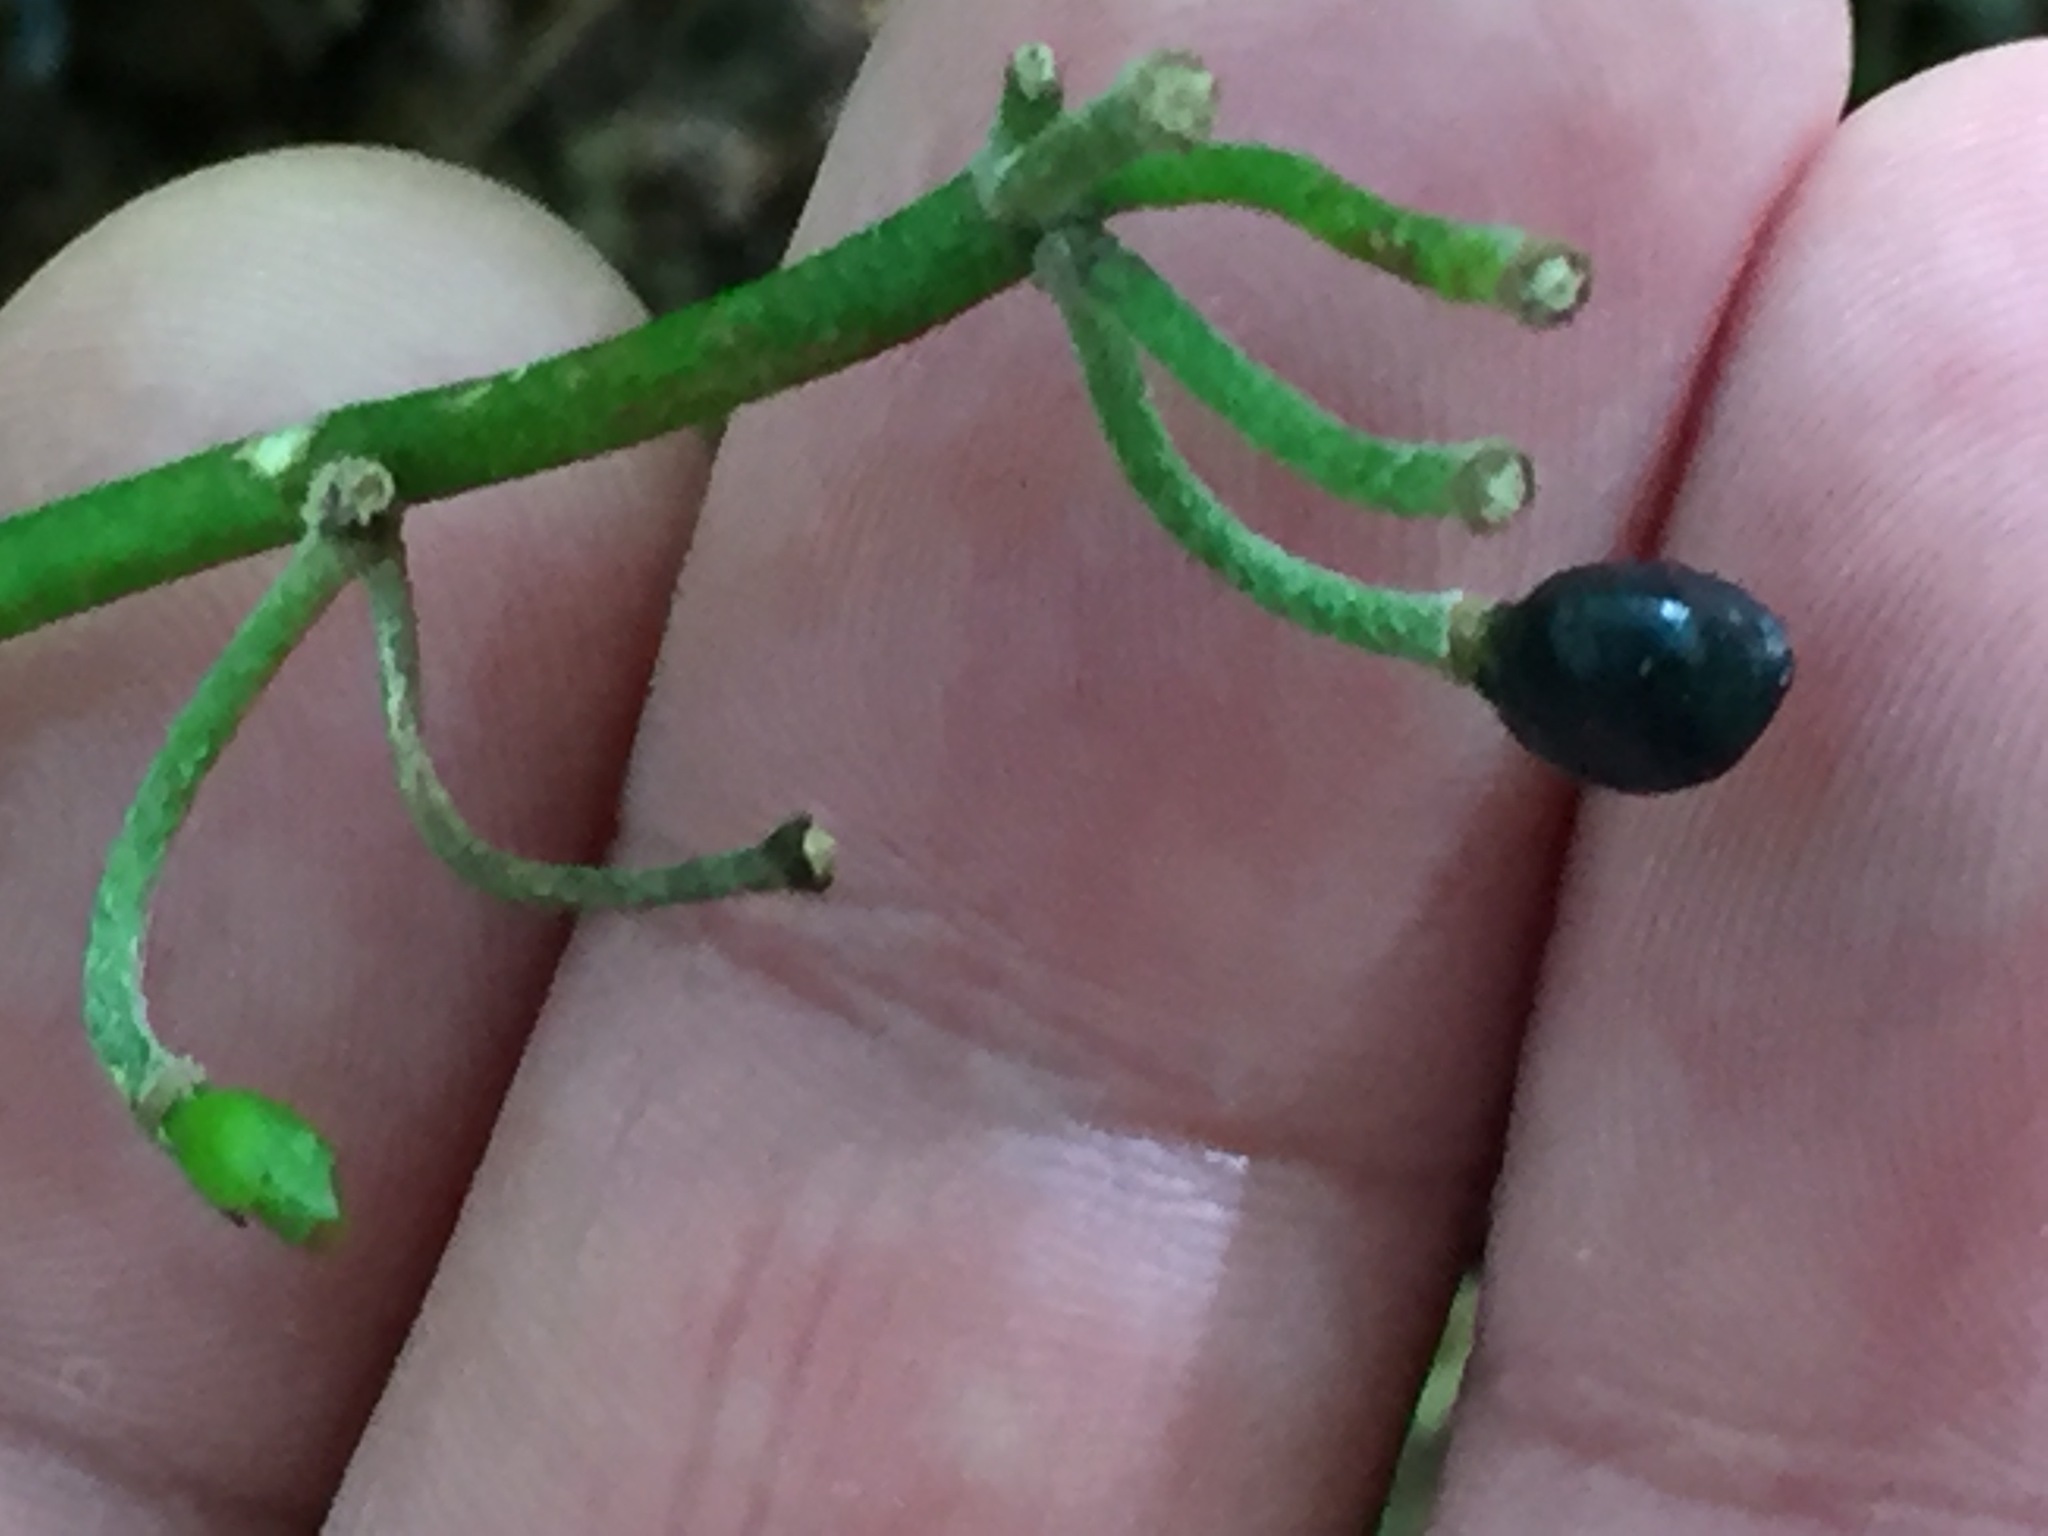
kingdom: Plantae
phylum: Tracheophyta
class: Liliopsida
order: Liliales
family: Liliaceae
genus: Clintonia
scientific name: Clintonia borealis
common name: Yellow clintonia
